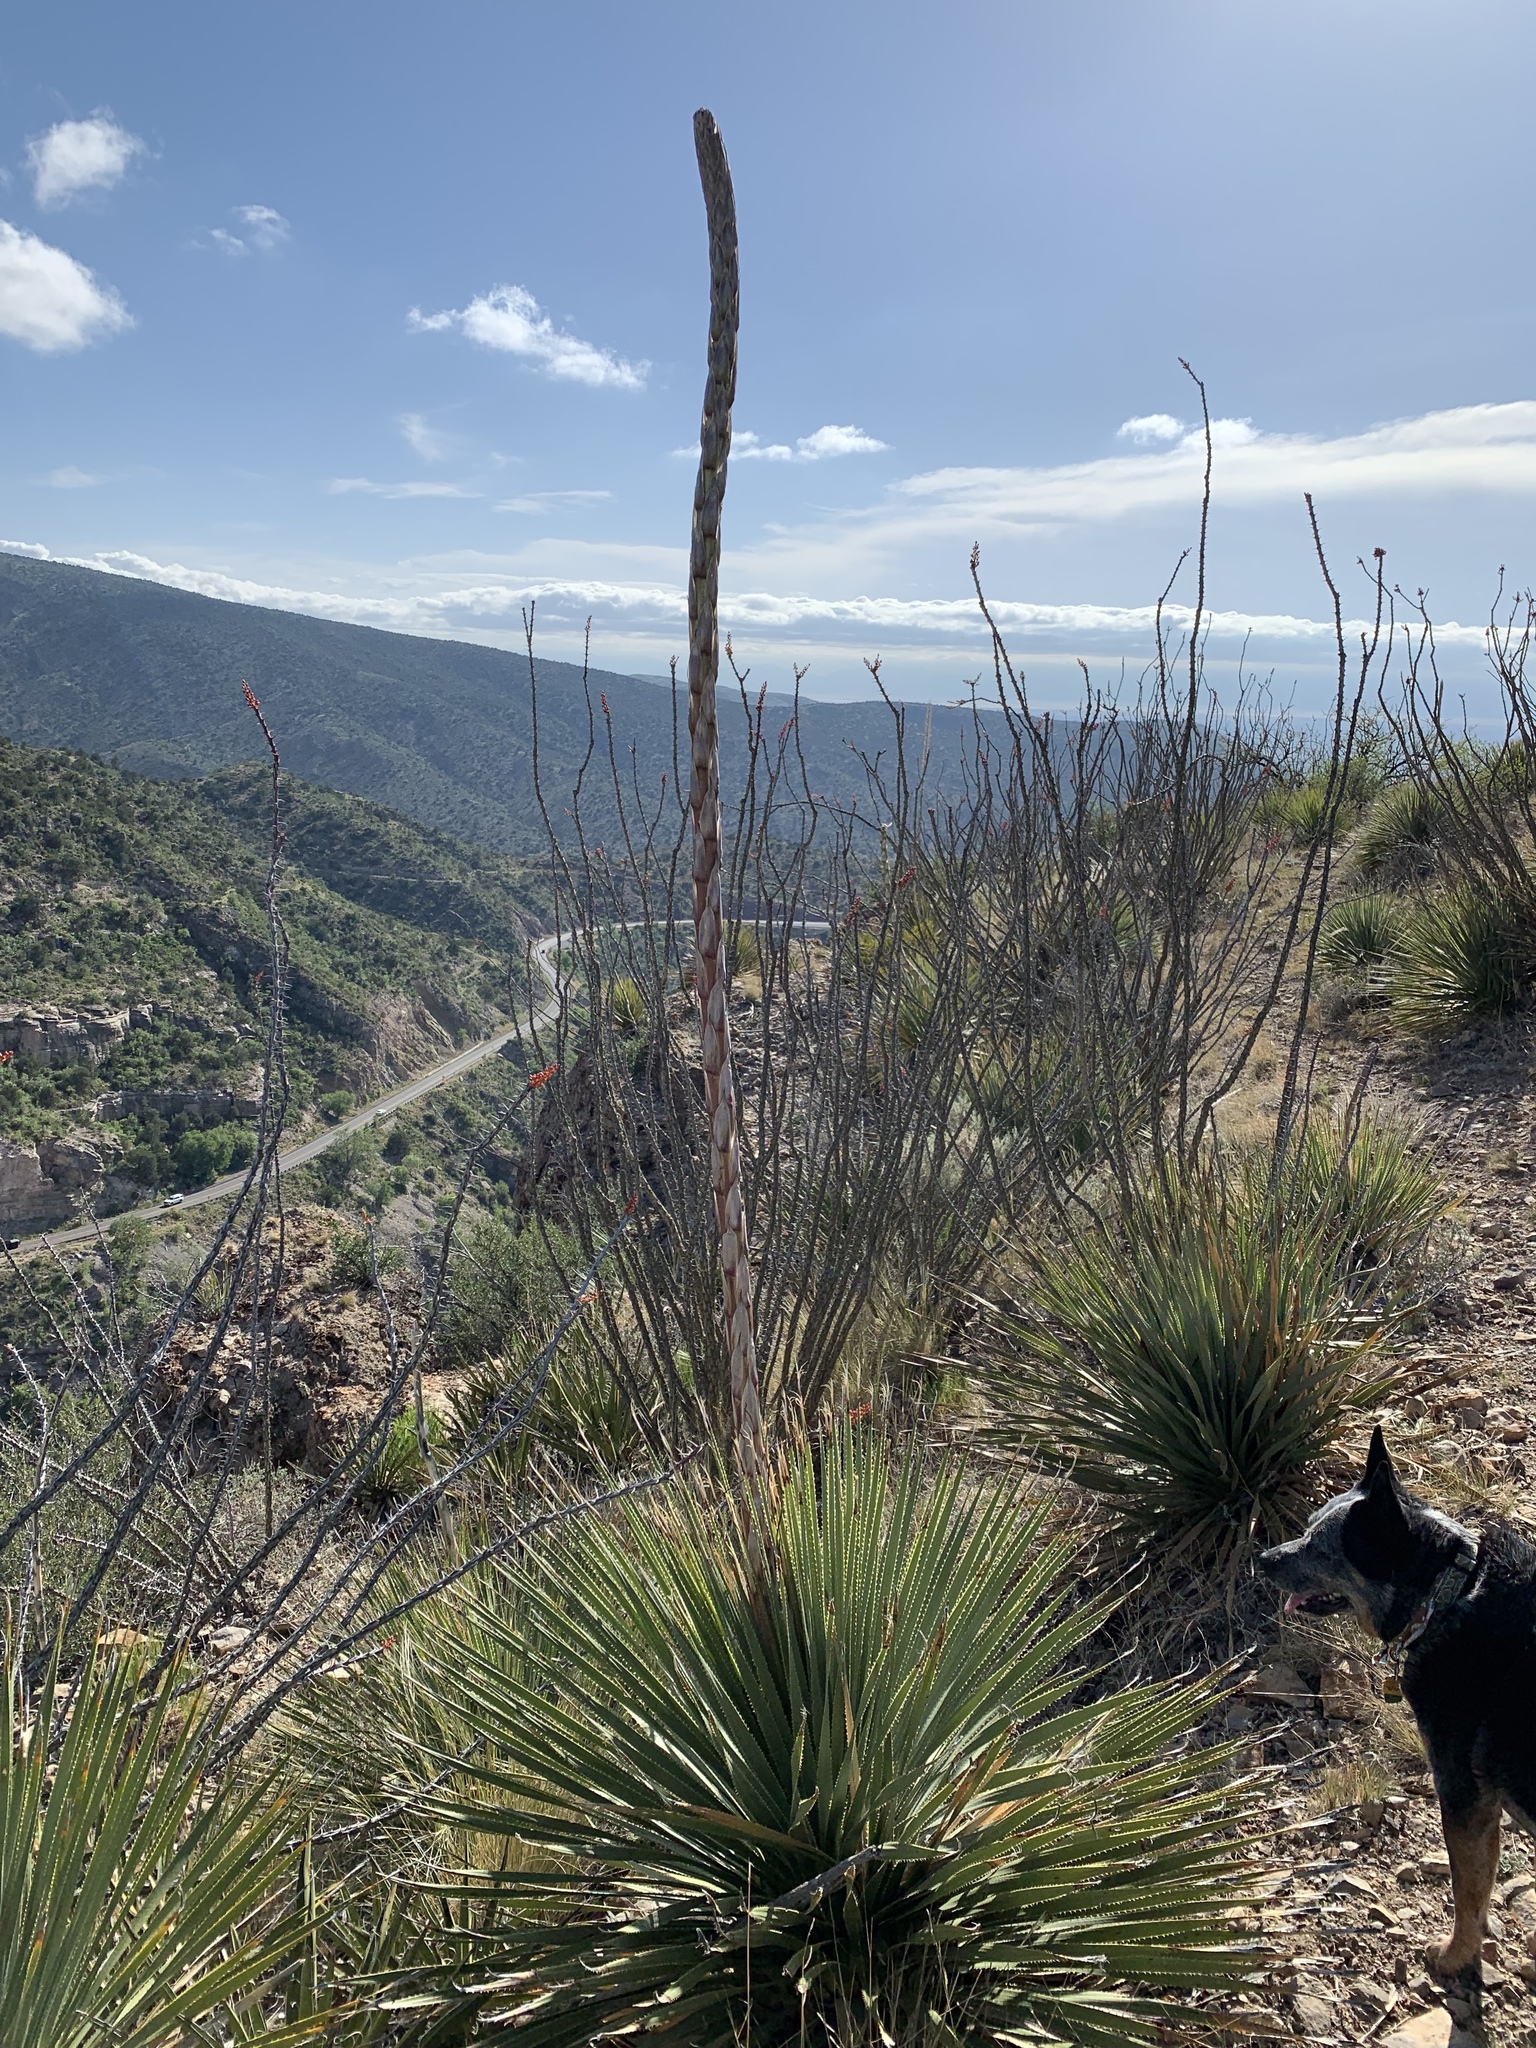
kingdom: Plantae
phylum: Tracheophyta
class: Liliopsida
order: Asparagales
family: Asparagaceae
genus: Dasylirion
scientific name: Dasylirion wheeleri
